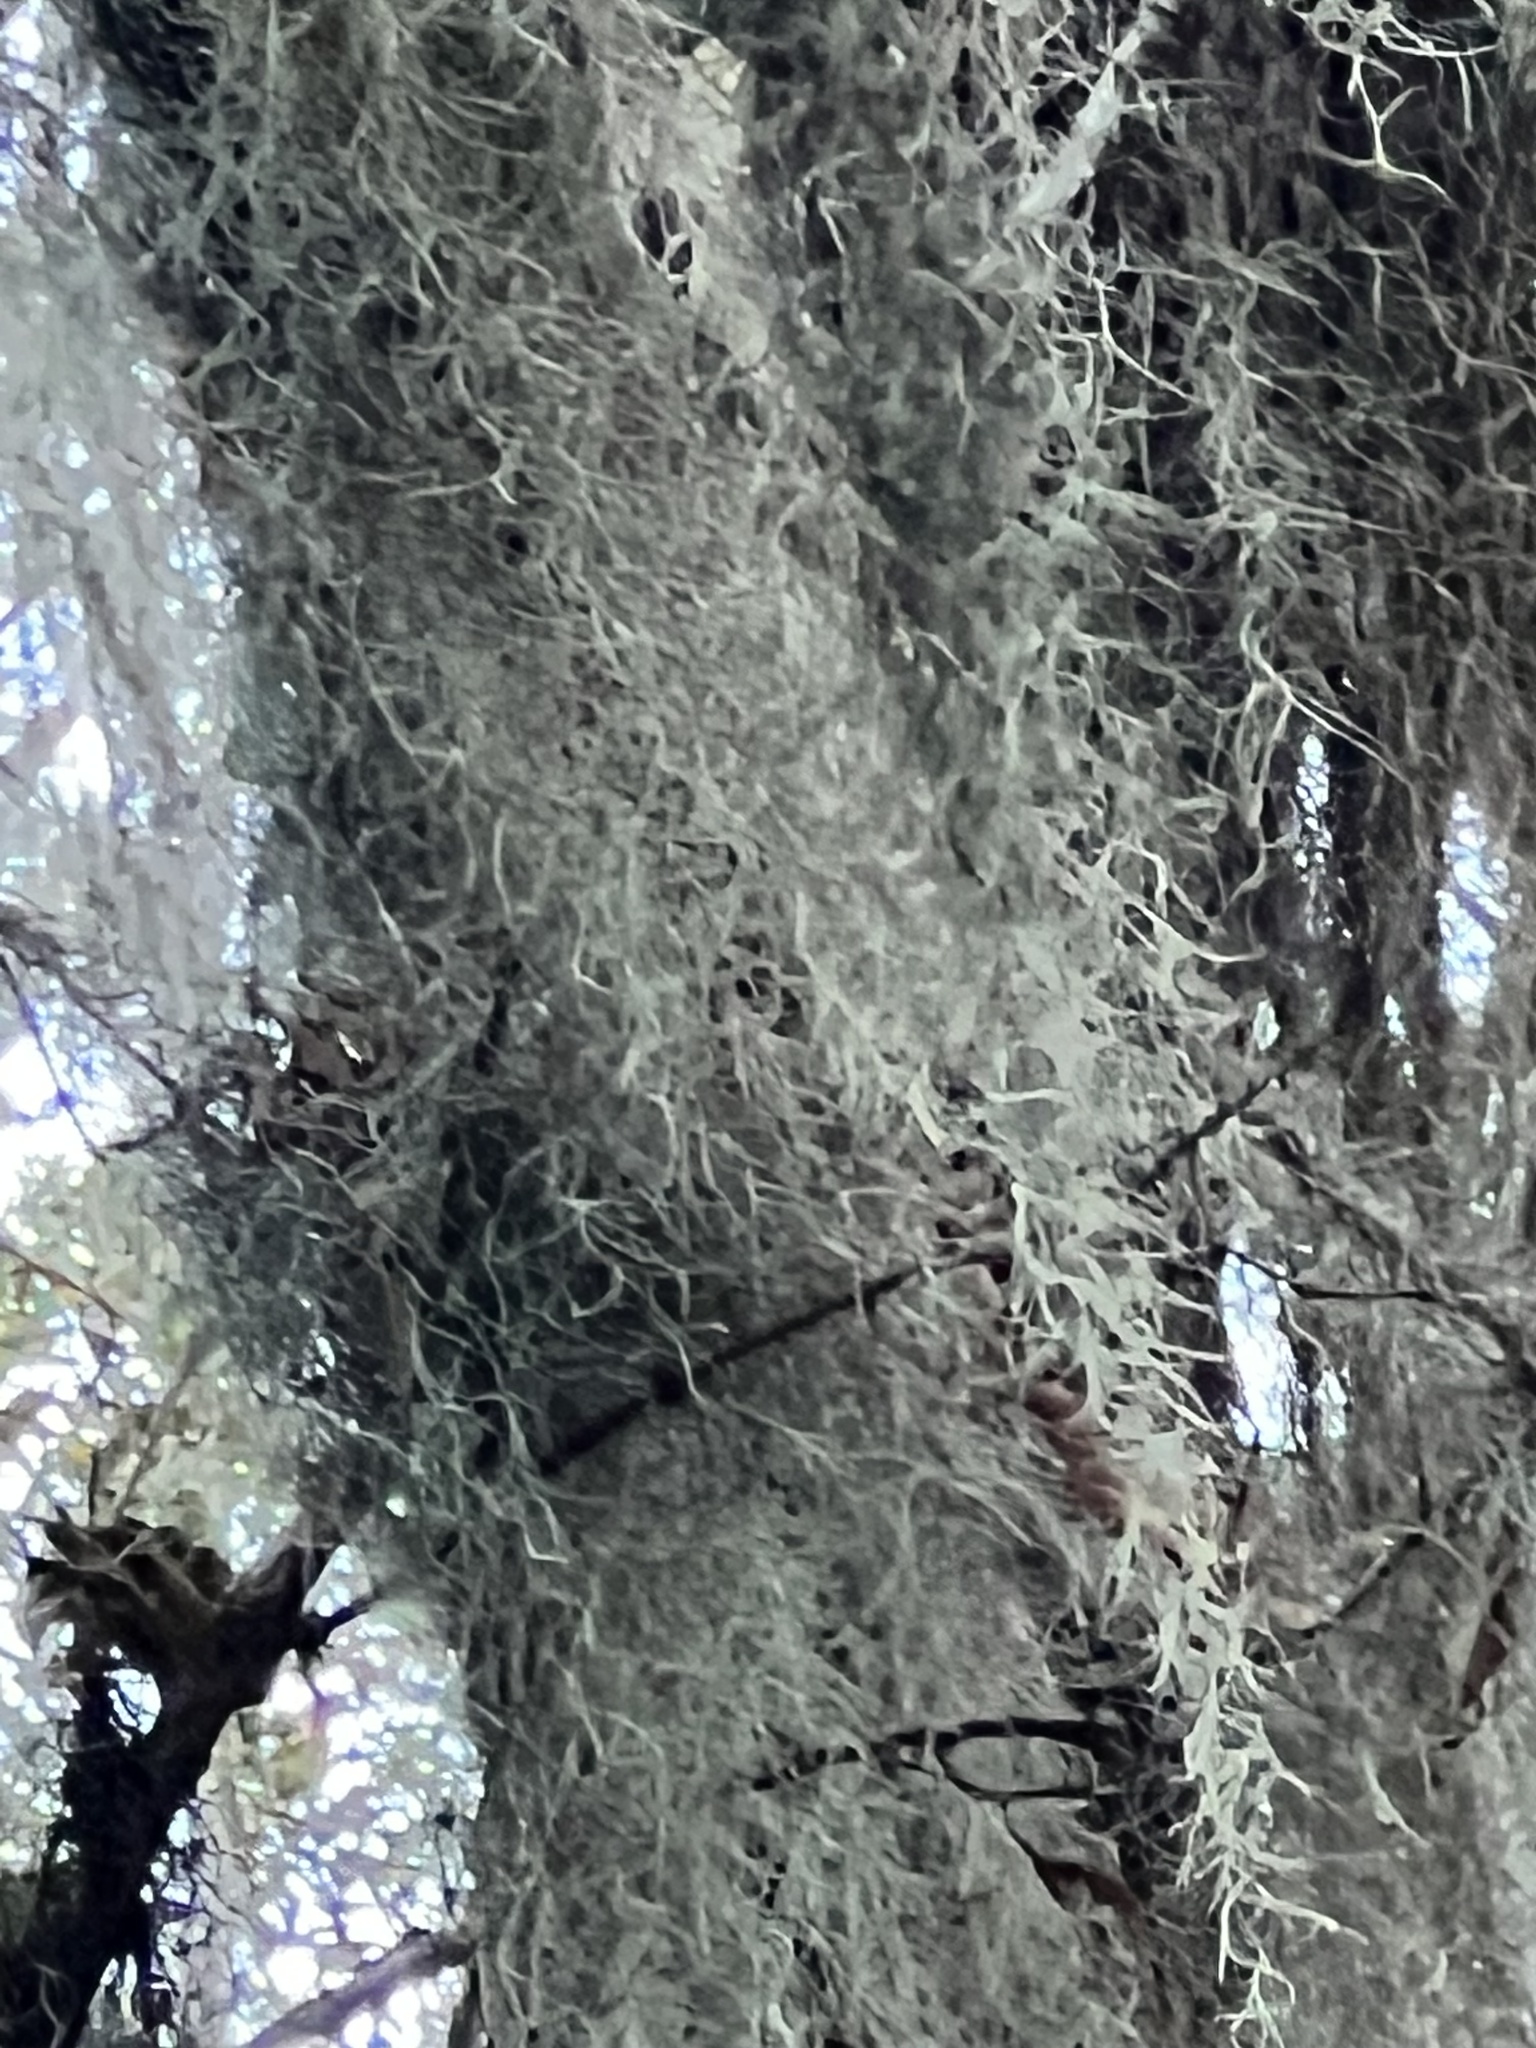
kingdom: Plantae
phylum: Tracheophyta
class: Liliopsida
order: Poales
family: Bromeliaceae
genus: Tillandsia
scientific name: Tillandsia usneoides
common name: Spanish moss
